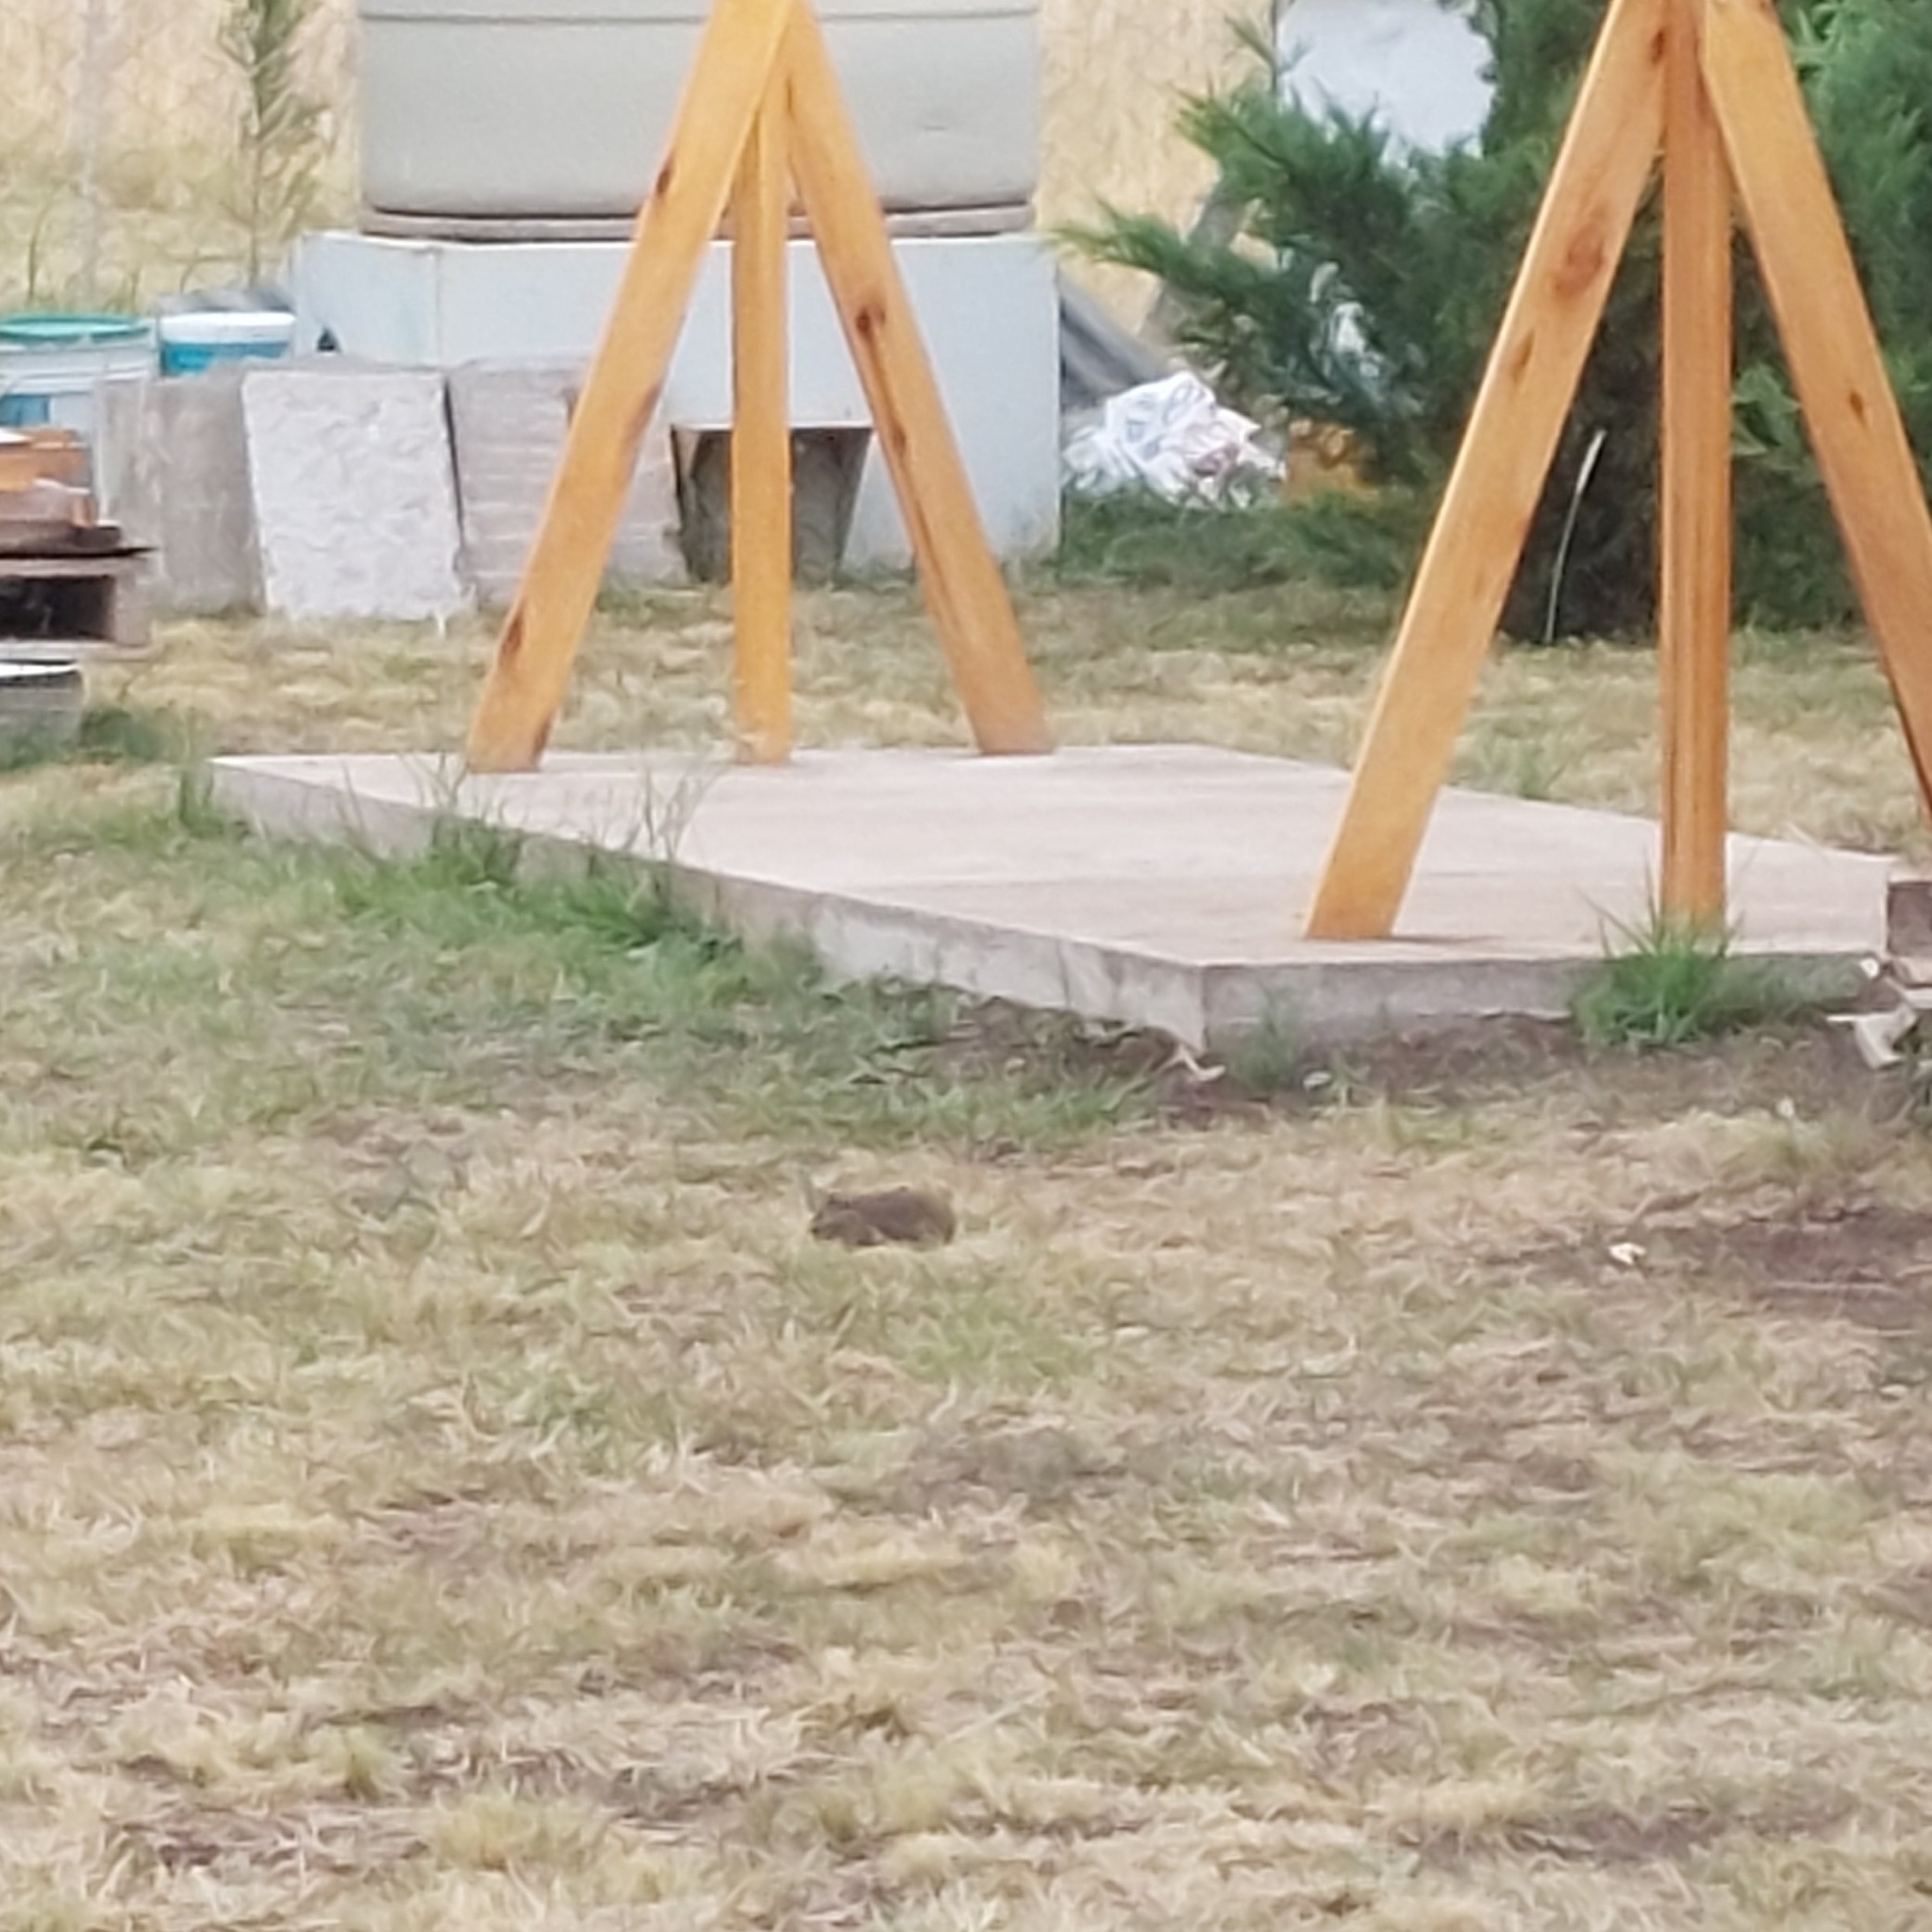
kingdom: Animalia
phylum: Chordata
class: Mammalia
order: Rodentia
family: Caviidae
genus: Cavia
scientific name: Cavia aperea
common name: Brazilian guinea pig
